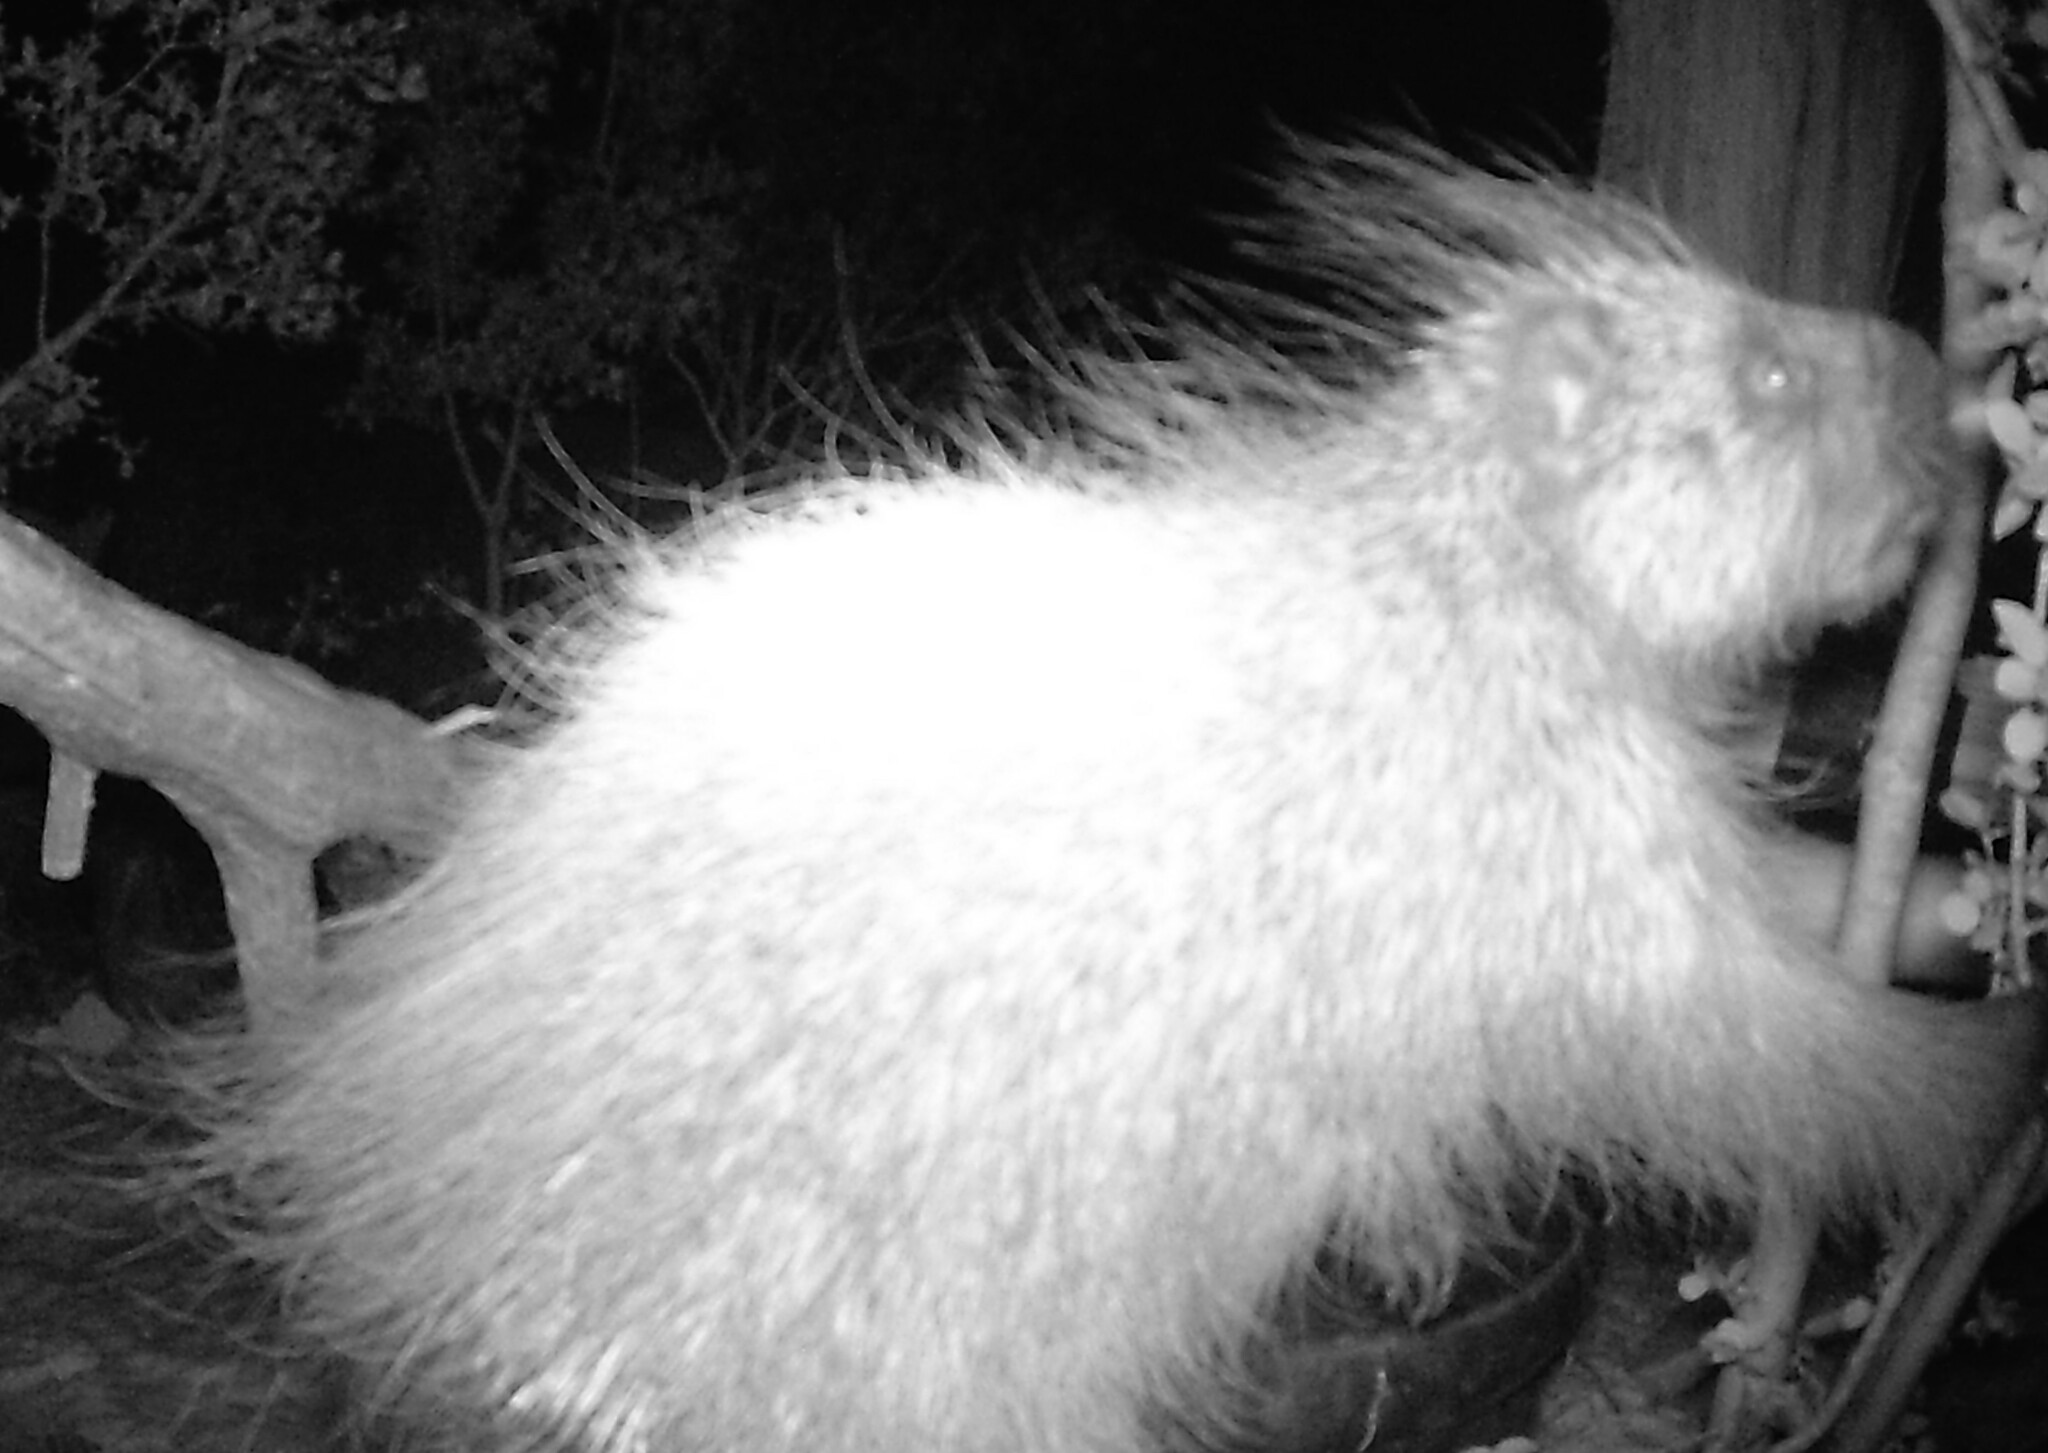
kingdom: Animalia
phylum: Chordata
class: Mammalia
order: Rodentia
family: Erethizontidae
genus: Erethizon
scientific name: Erethizon dorsatus
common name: North american porcupine
